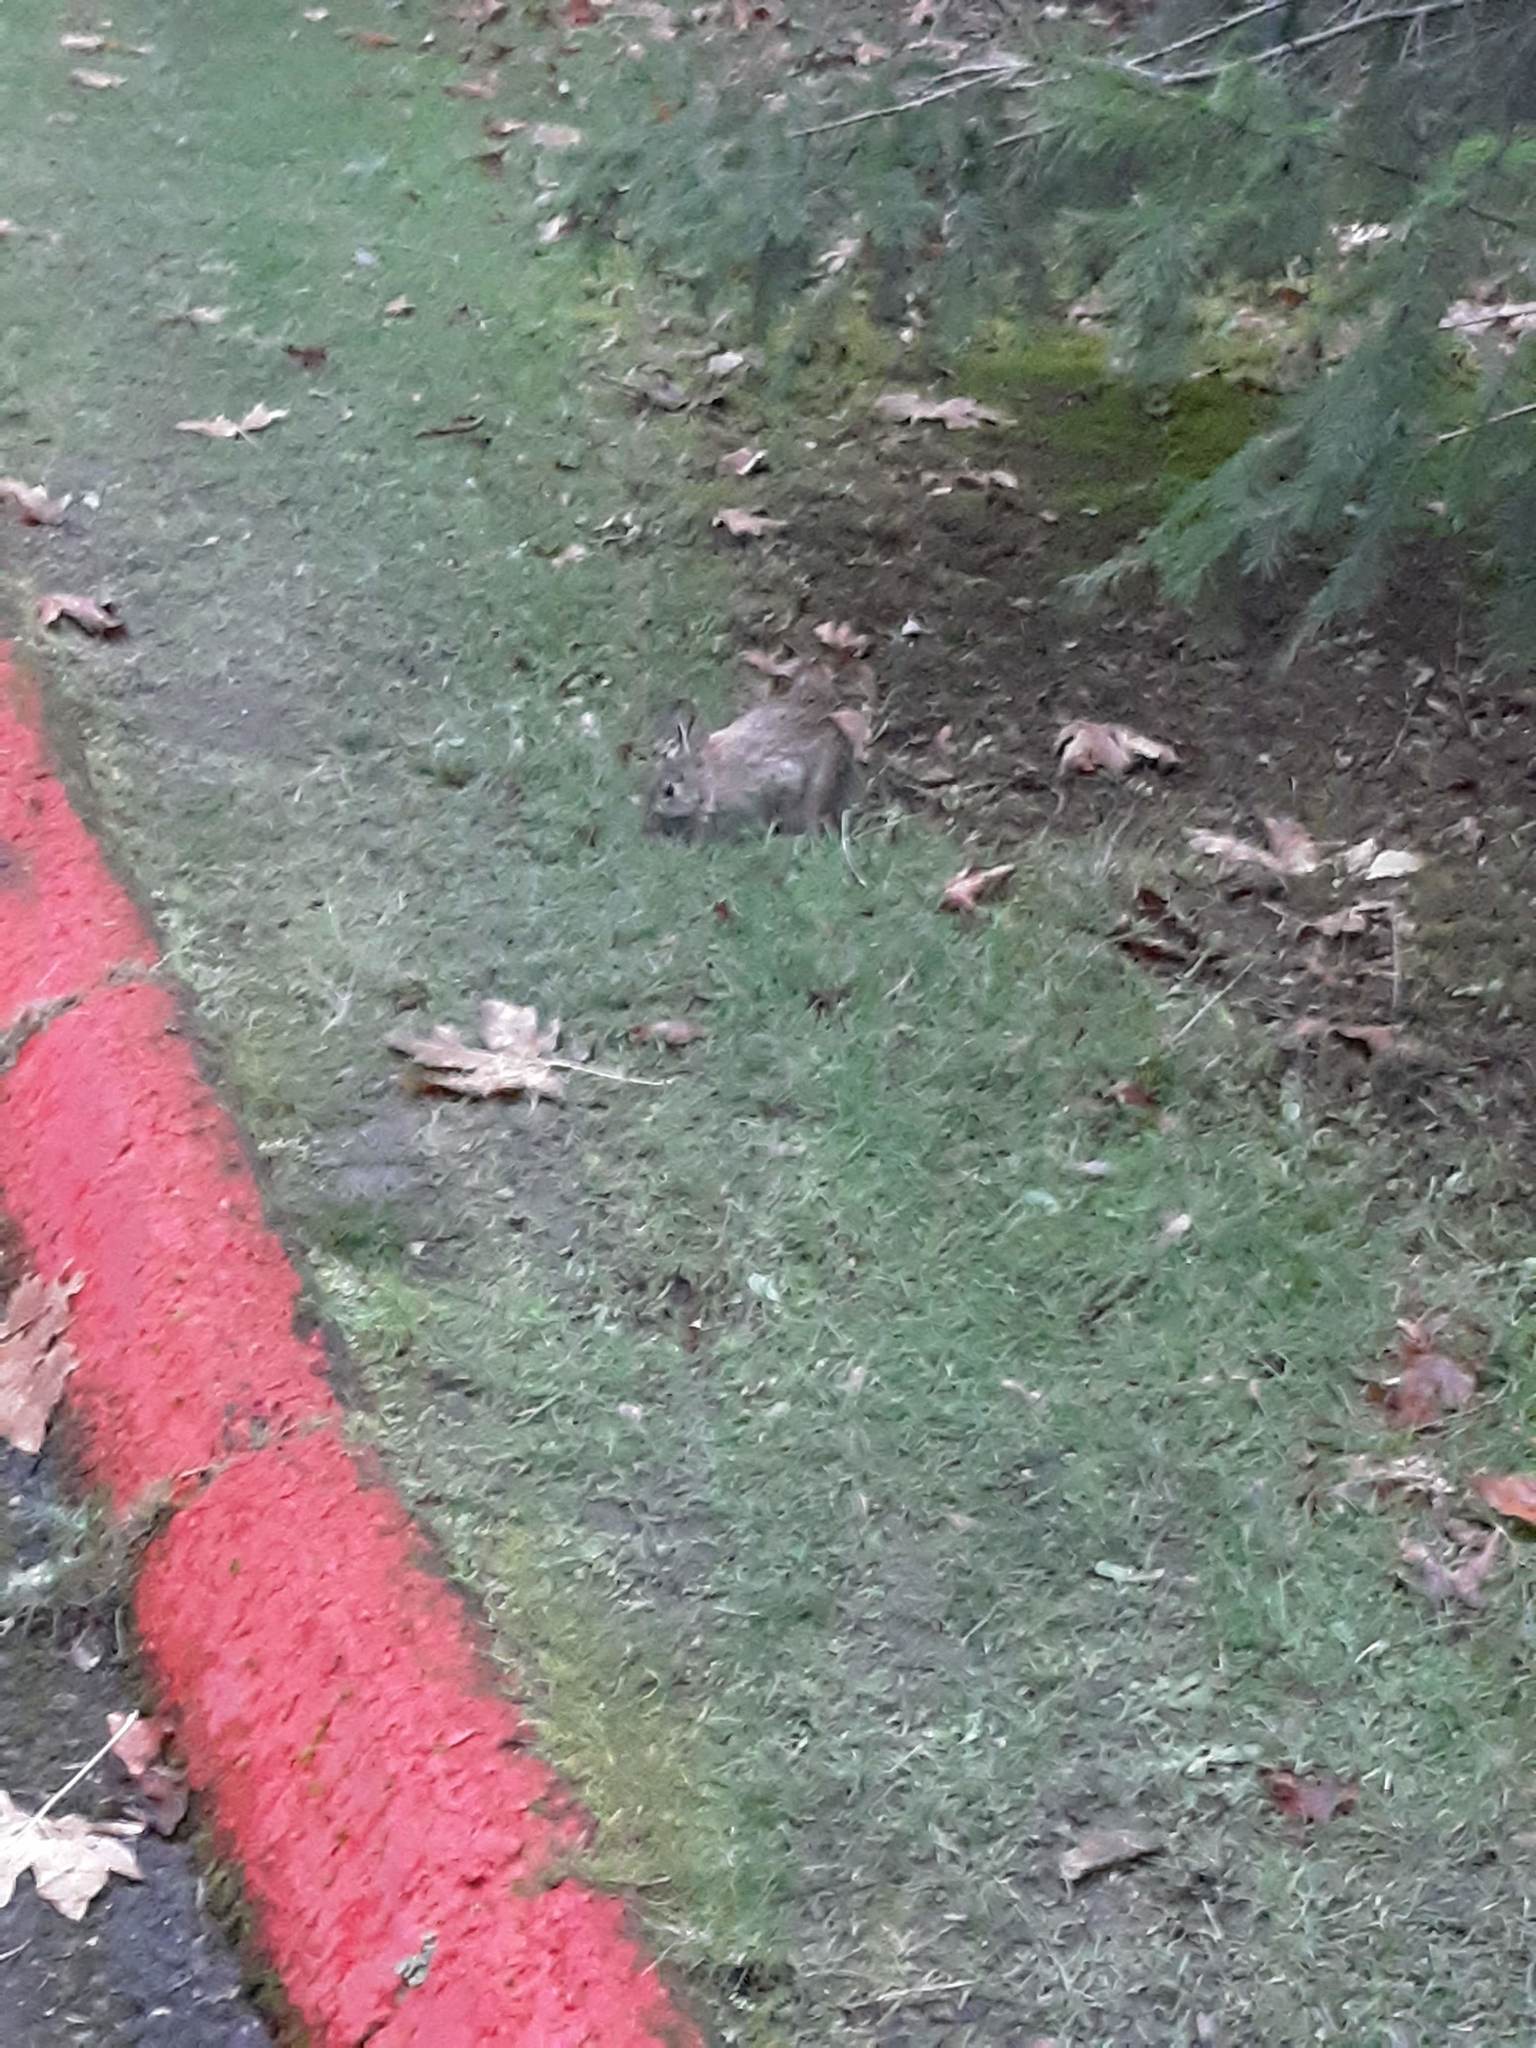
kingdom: Animalia
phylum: Chordata
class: Mammalia
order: Lagomorpha
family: Leporidae
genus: Sylvilagus
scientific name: Sylvilagus floridanus
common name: Eastern cottontail
